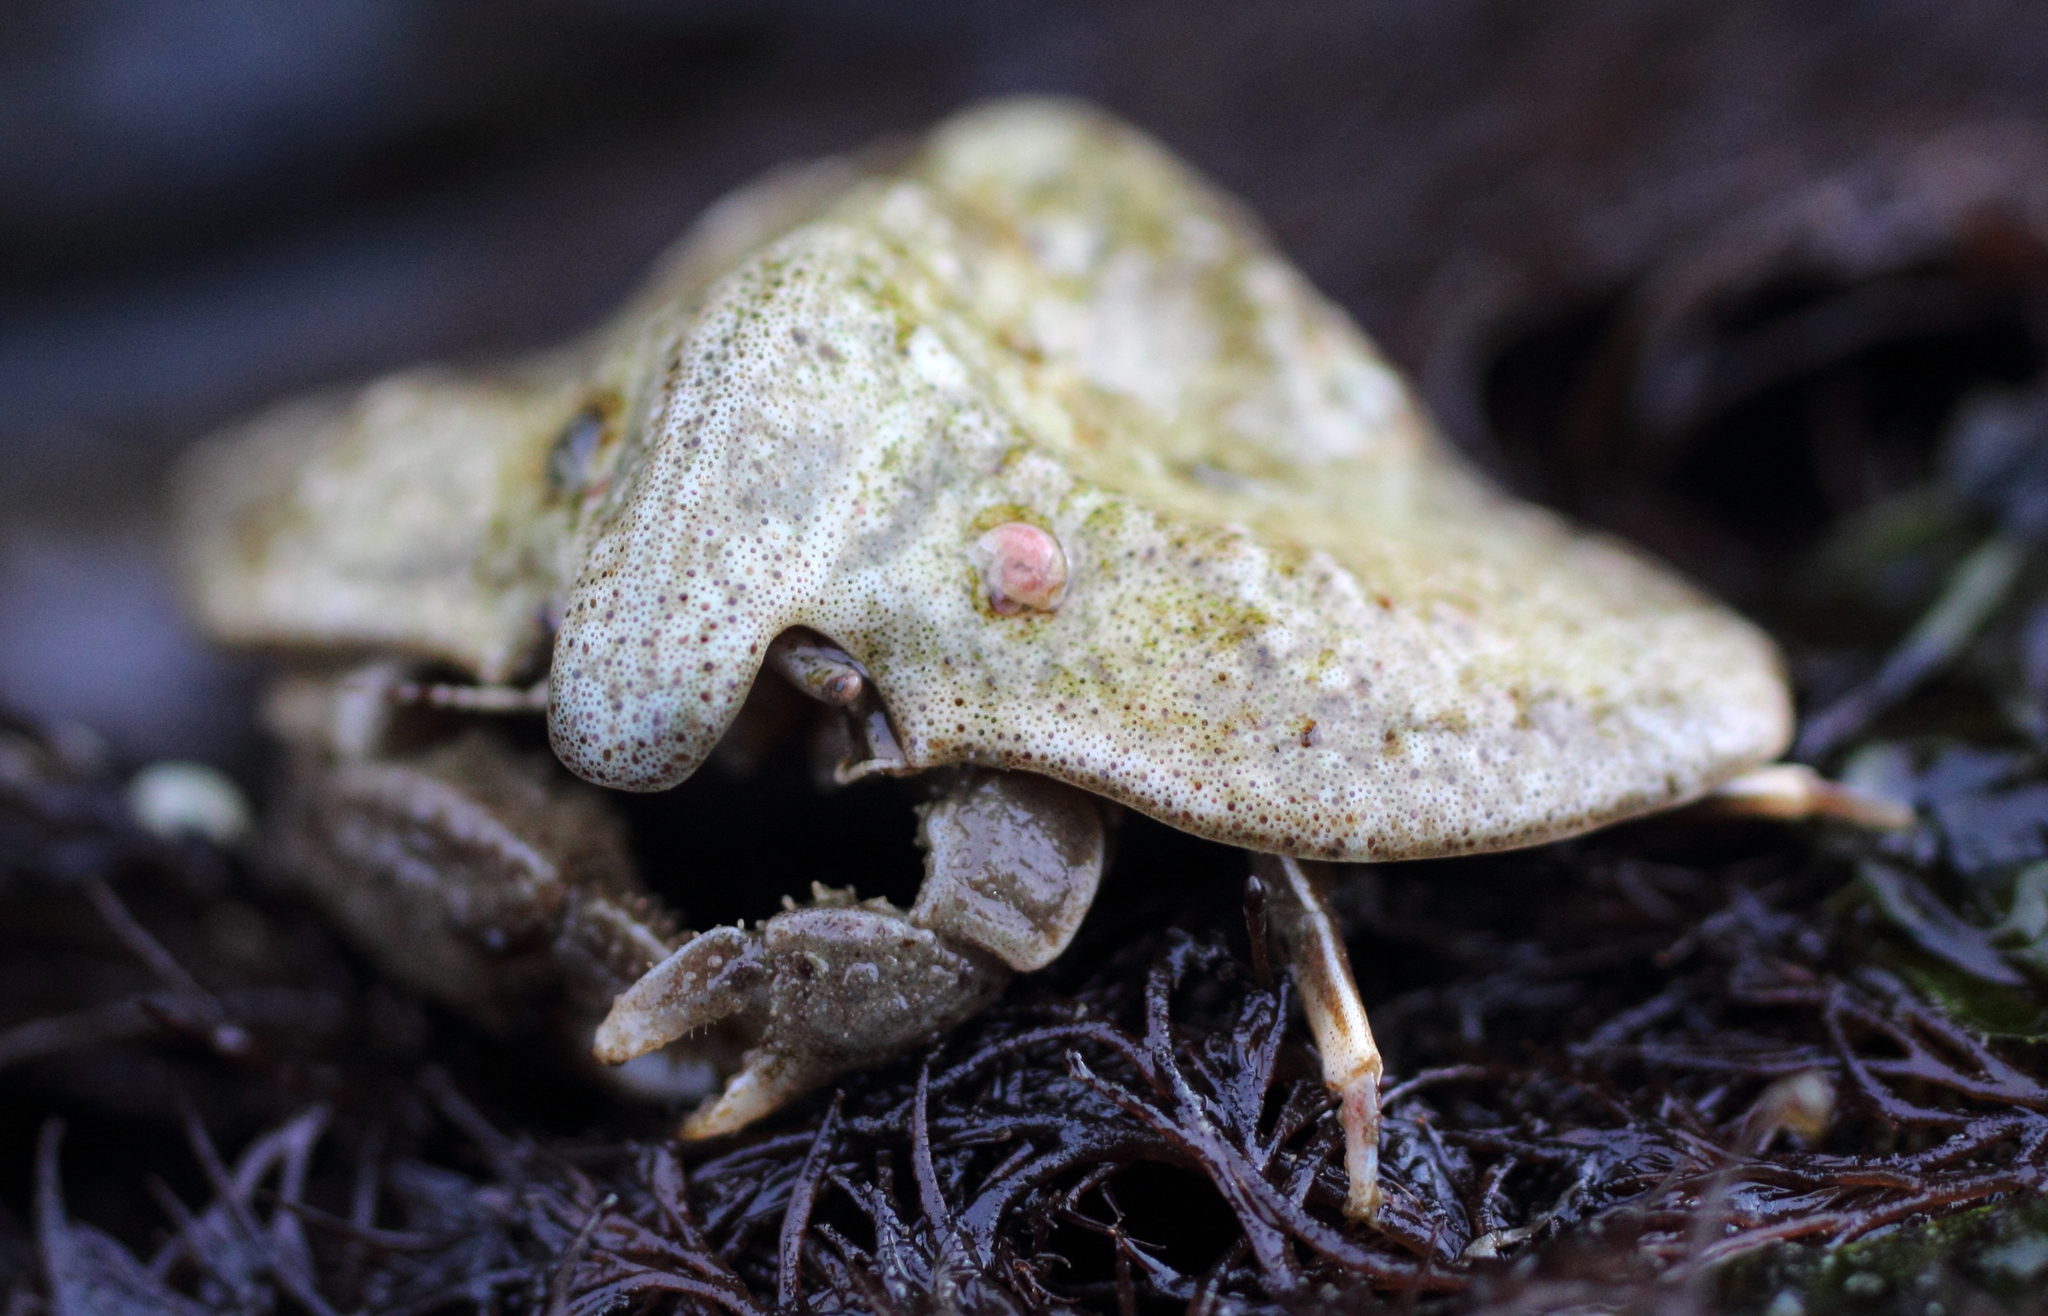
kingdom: Animalia
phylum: Arthropoda
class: Malacostraca
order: Decapoda
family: Lithodidae
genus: Cryptolithodes
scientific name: Cryptolithodes typicus
